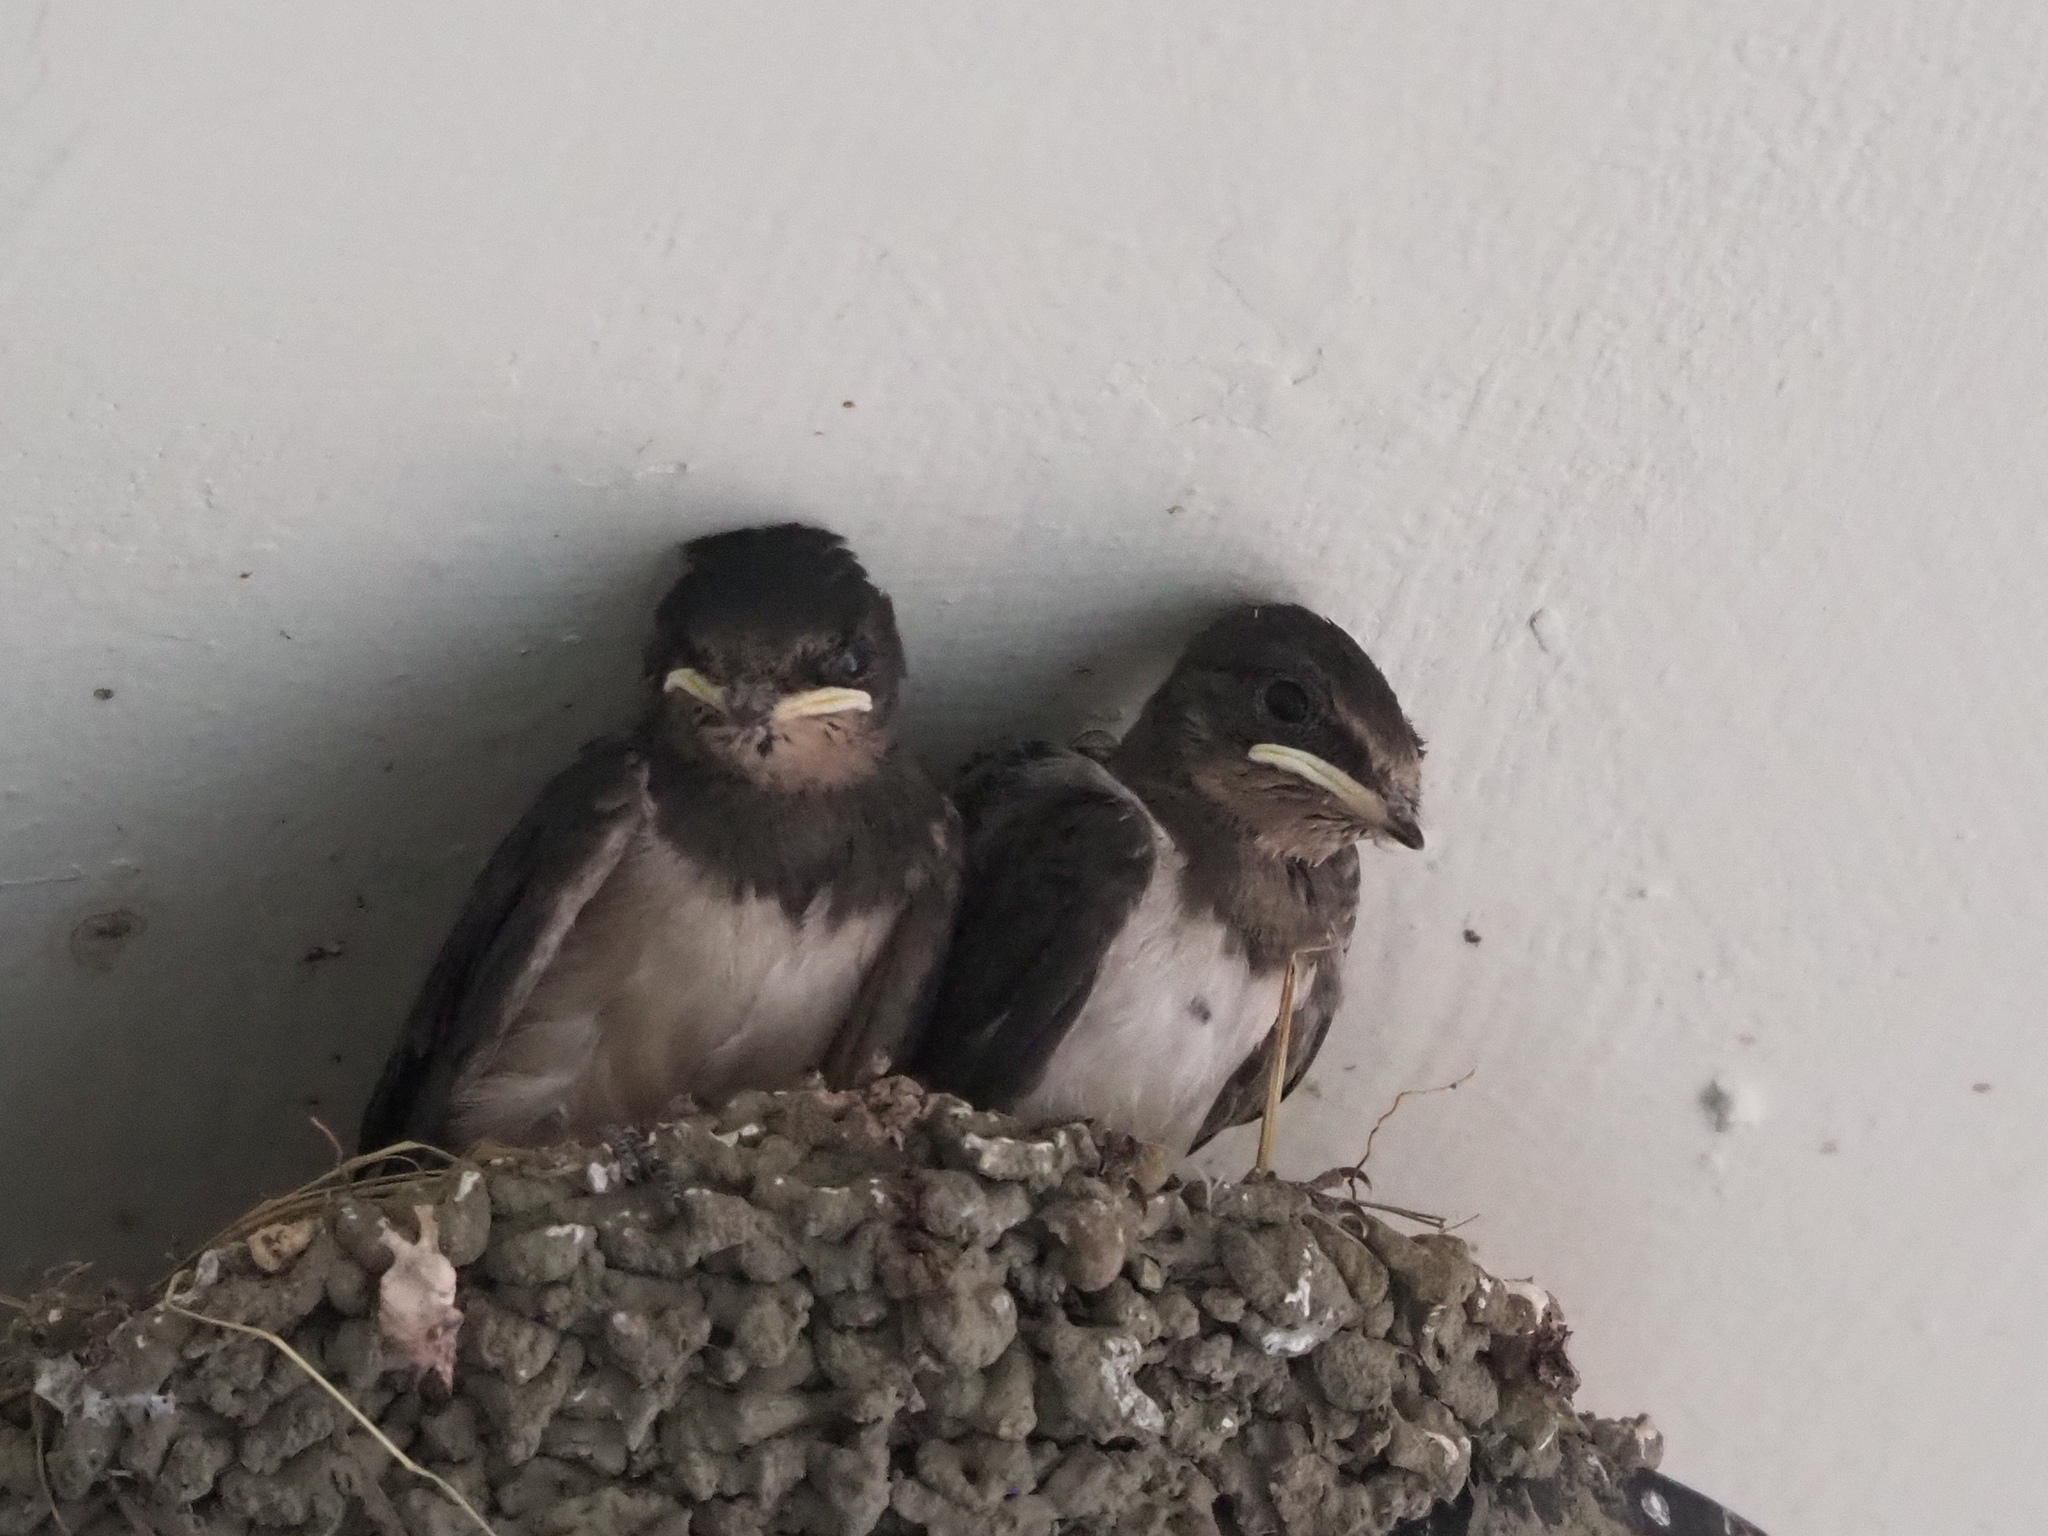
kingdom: Animalia
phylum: Chordata
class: Aves
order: Passeriformes
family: Hirundinidae
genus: Hirundo
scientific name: Hirundo rustica
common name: Barn swallow
